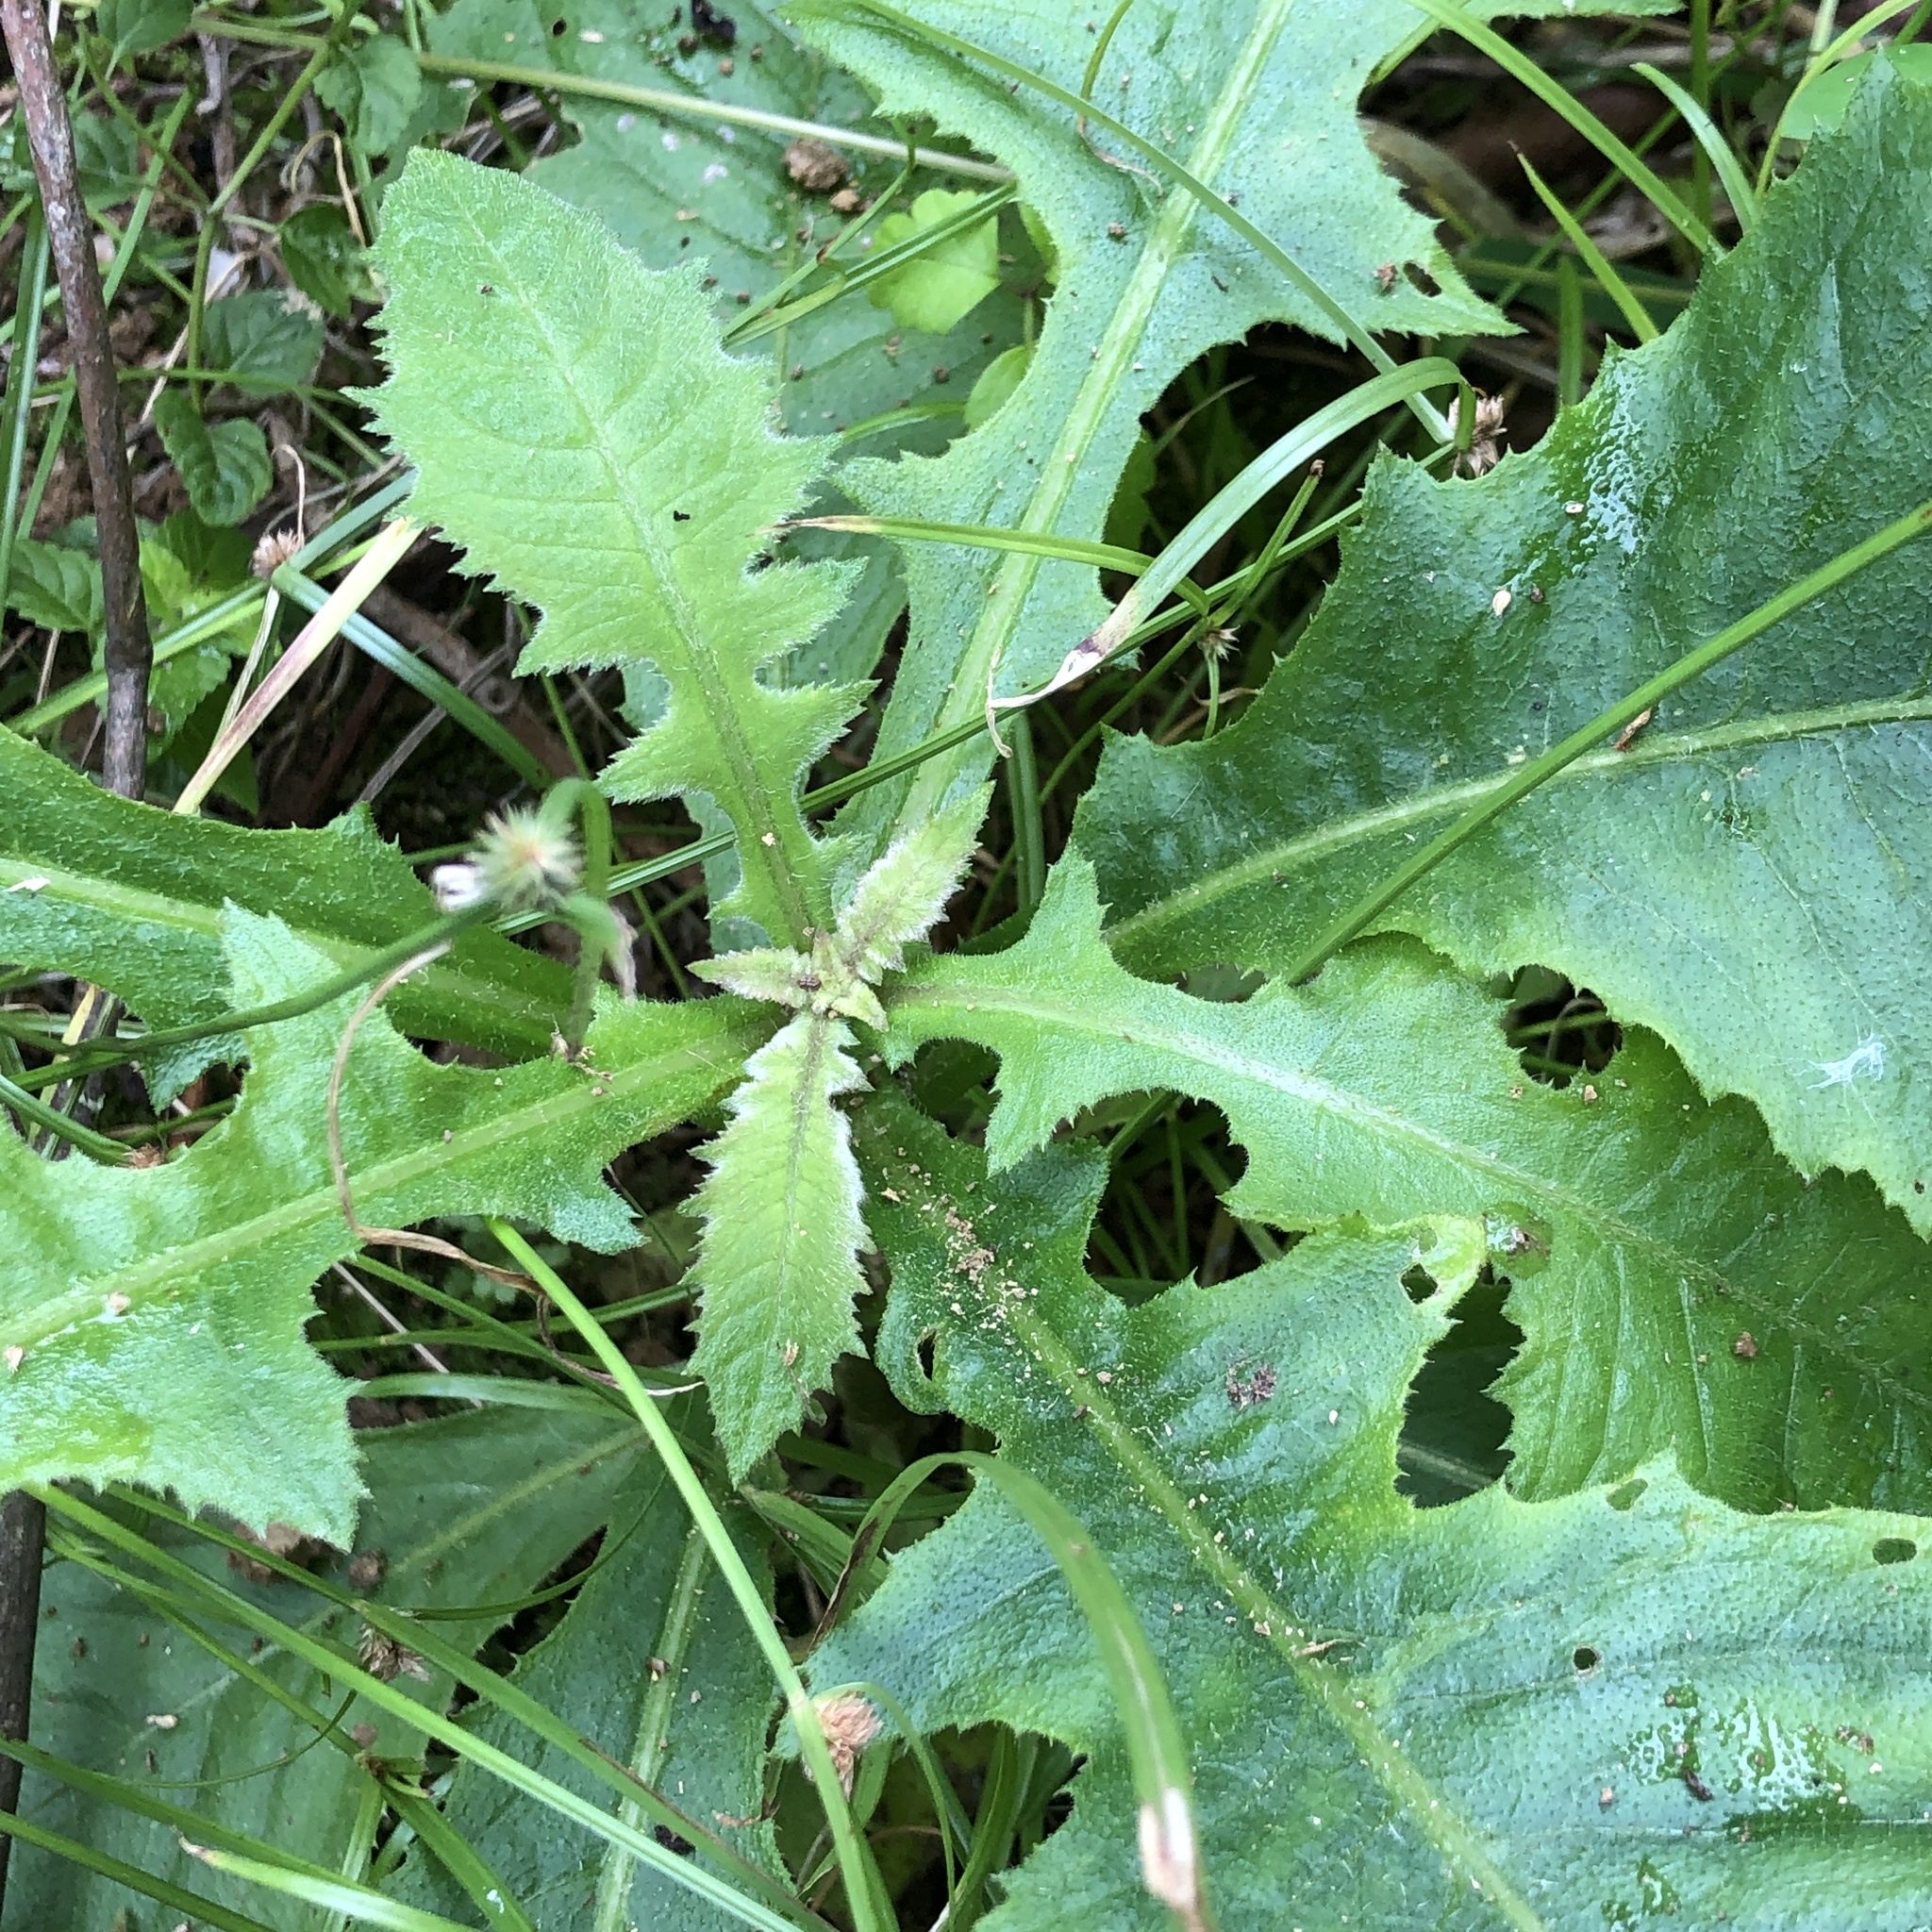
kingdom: Plantae
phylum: Tracheophyta
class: Magnoliopsida
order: Asterales
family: Asteraceae
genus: Blumea
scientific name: Blumea sinuata
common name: Cutleaf false oxtongue
